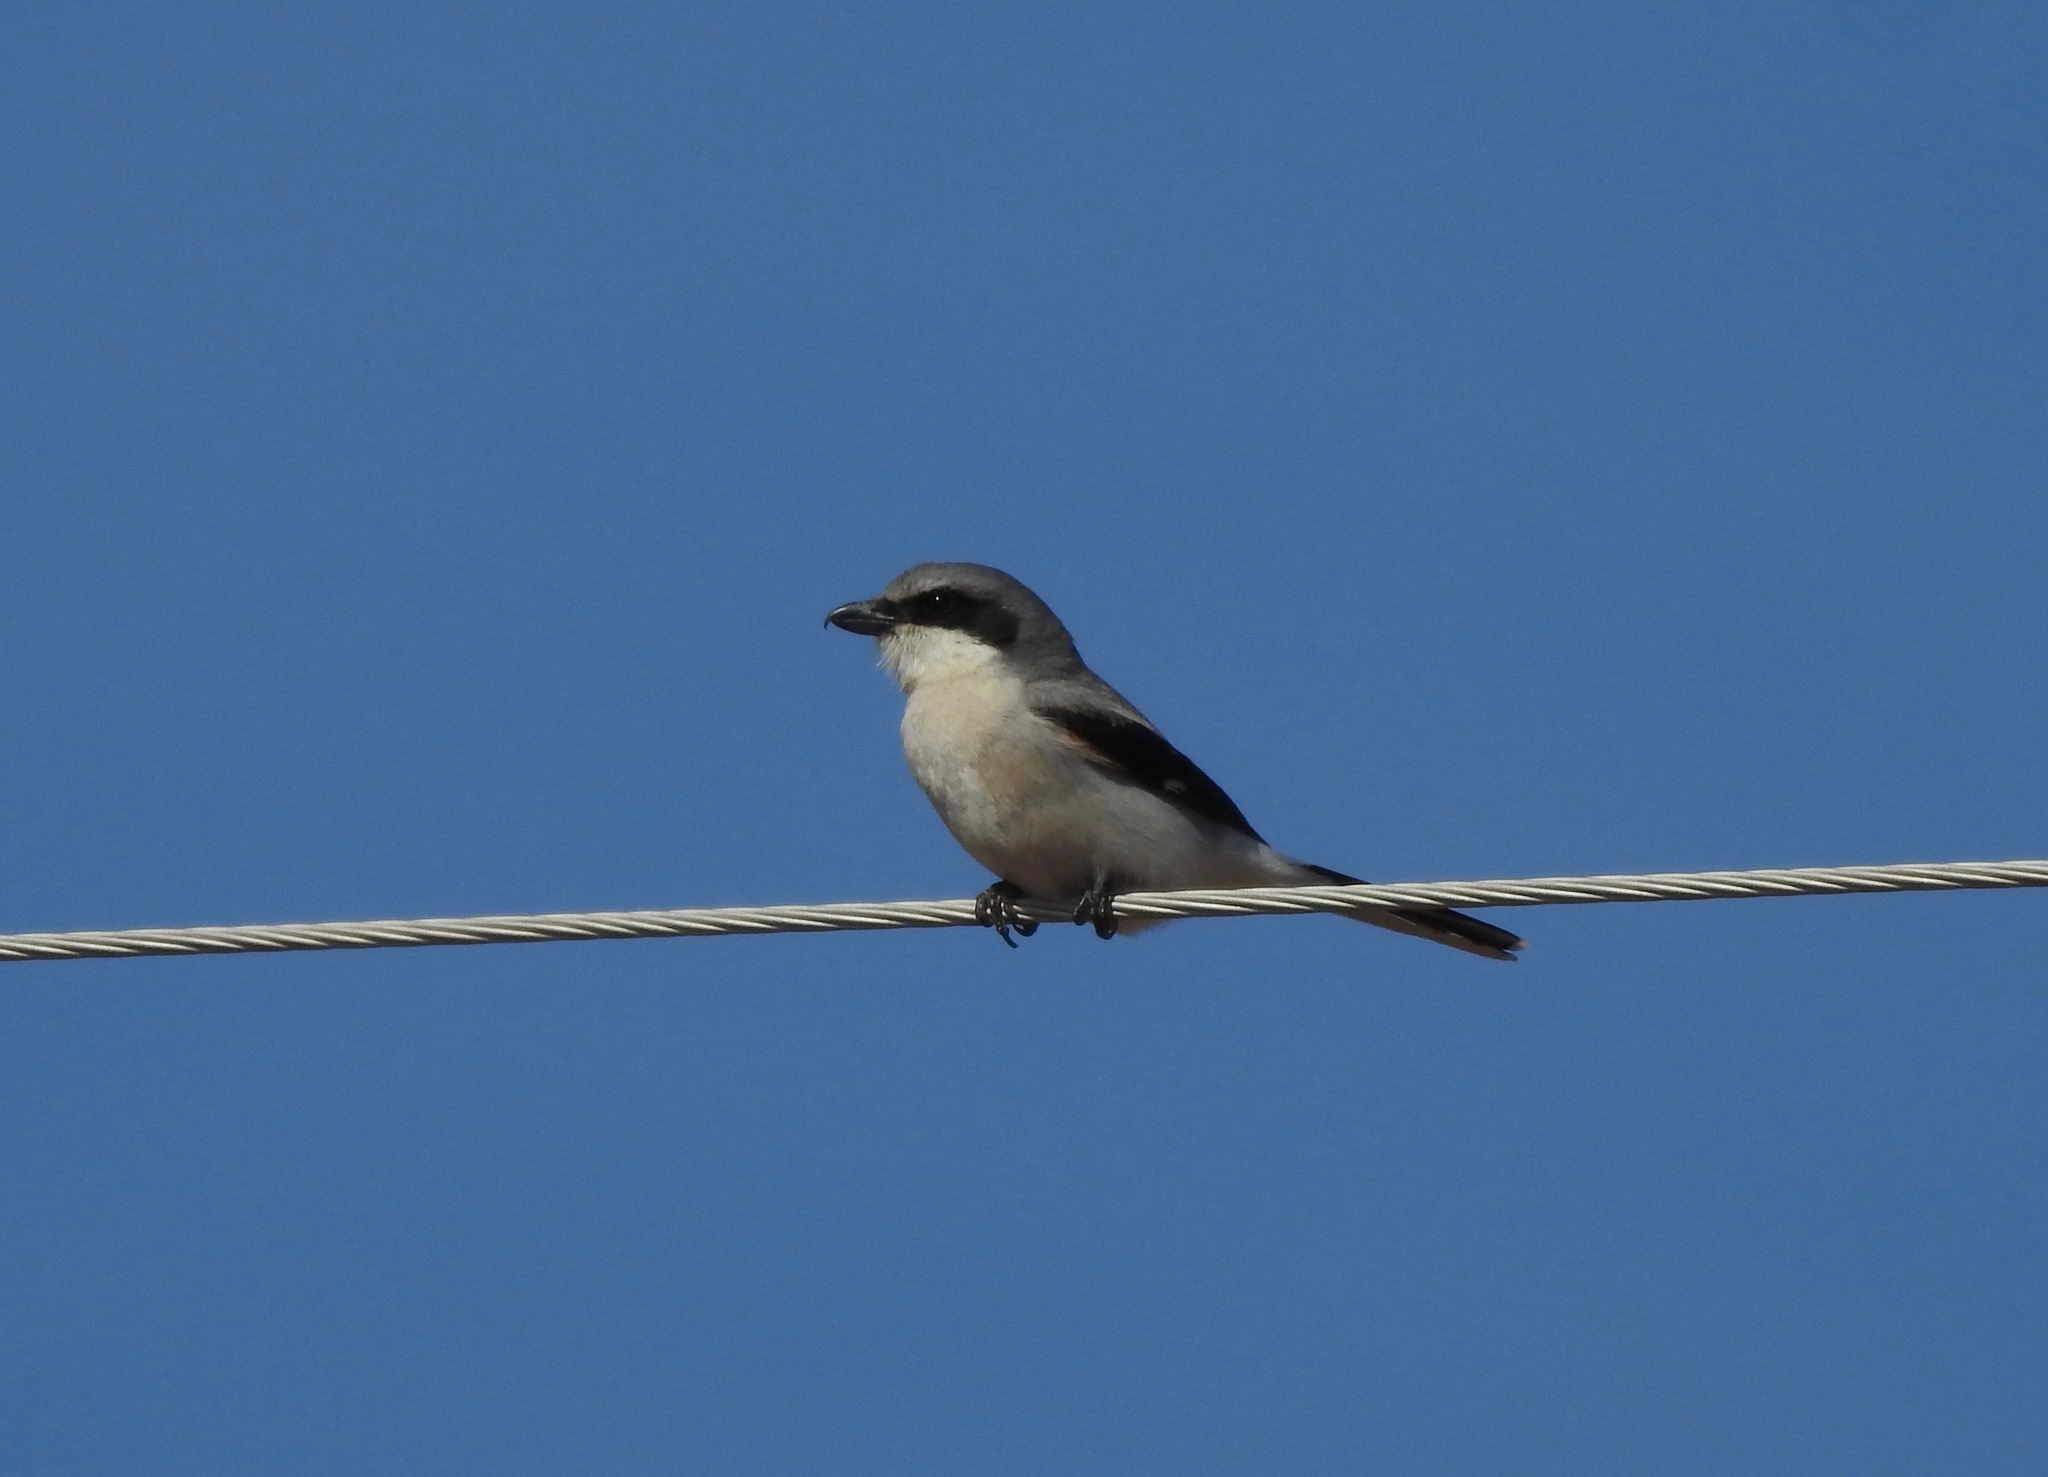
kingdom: Animalia
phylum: Chordata
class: Aves
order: Passeriformes
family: Laniidae
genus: Lanius
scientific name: Lanius ludovicianus
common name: Loggerhead shrike
